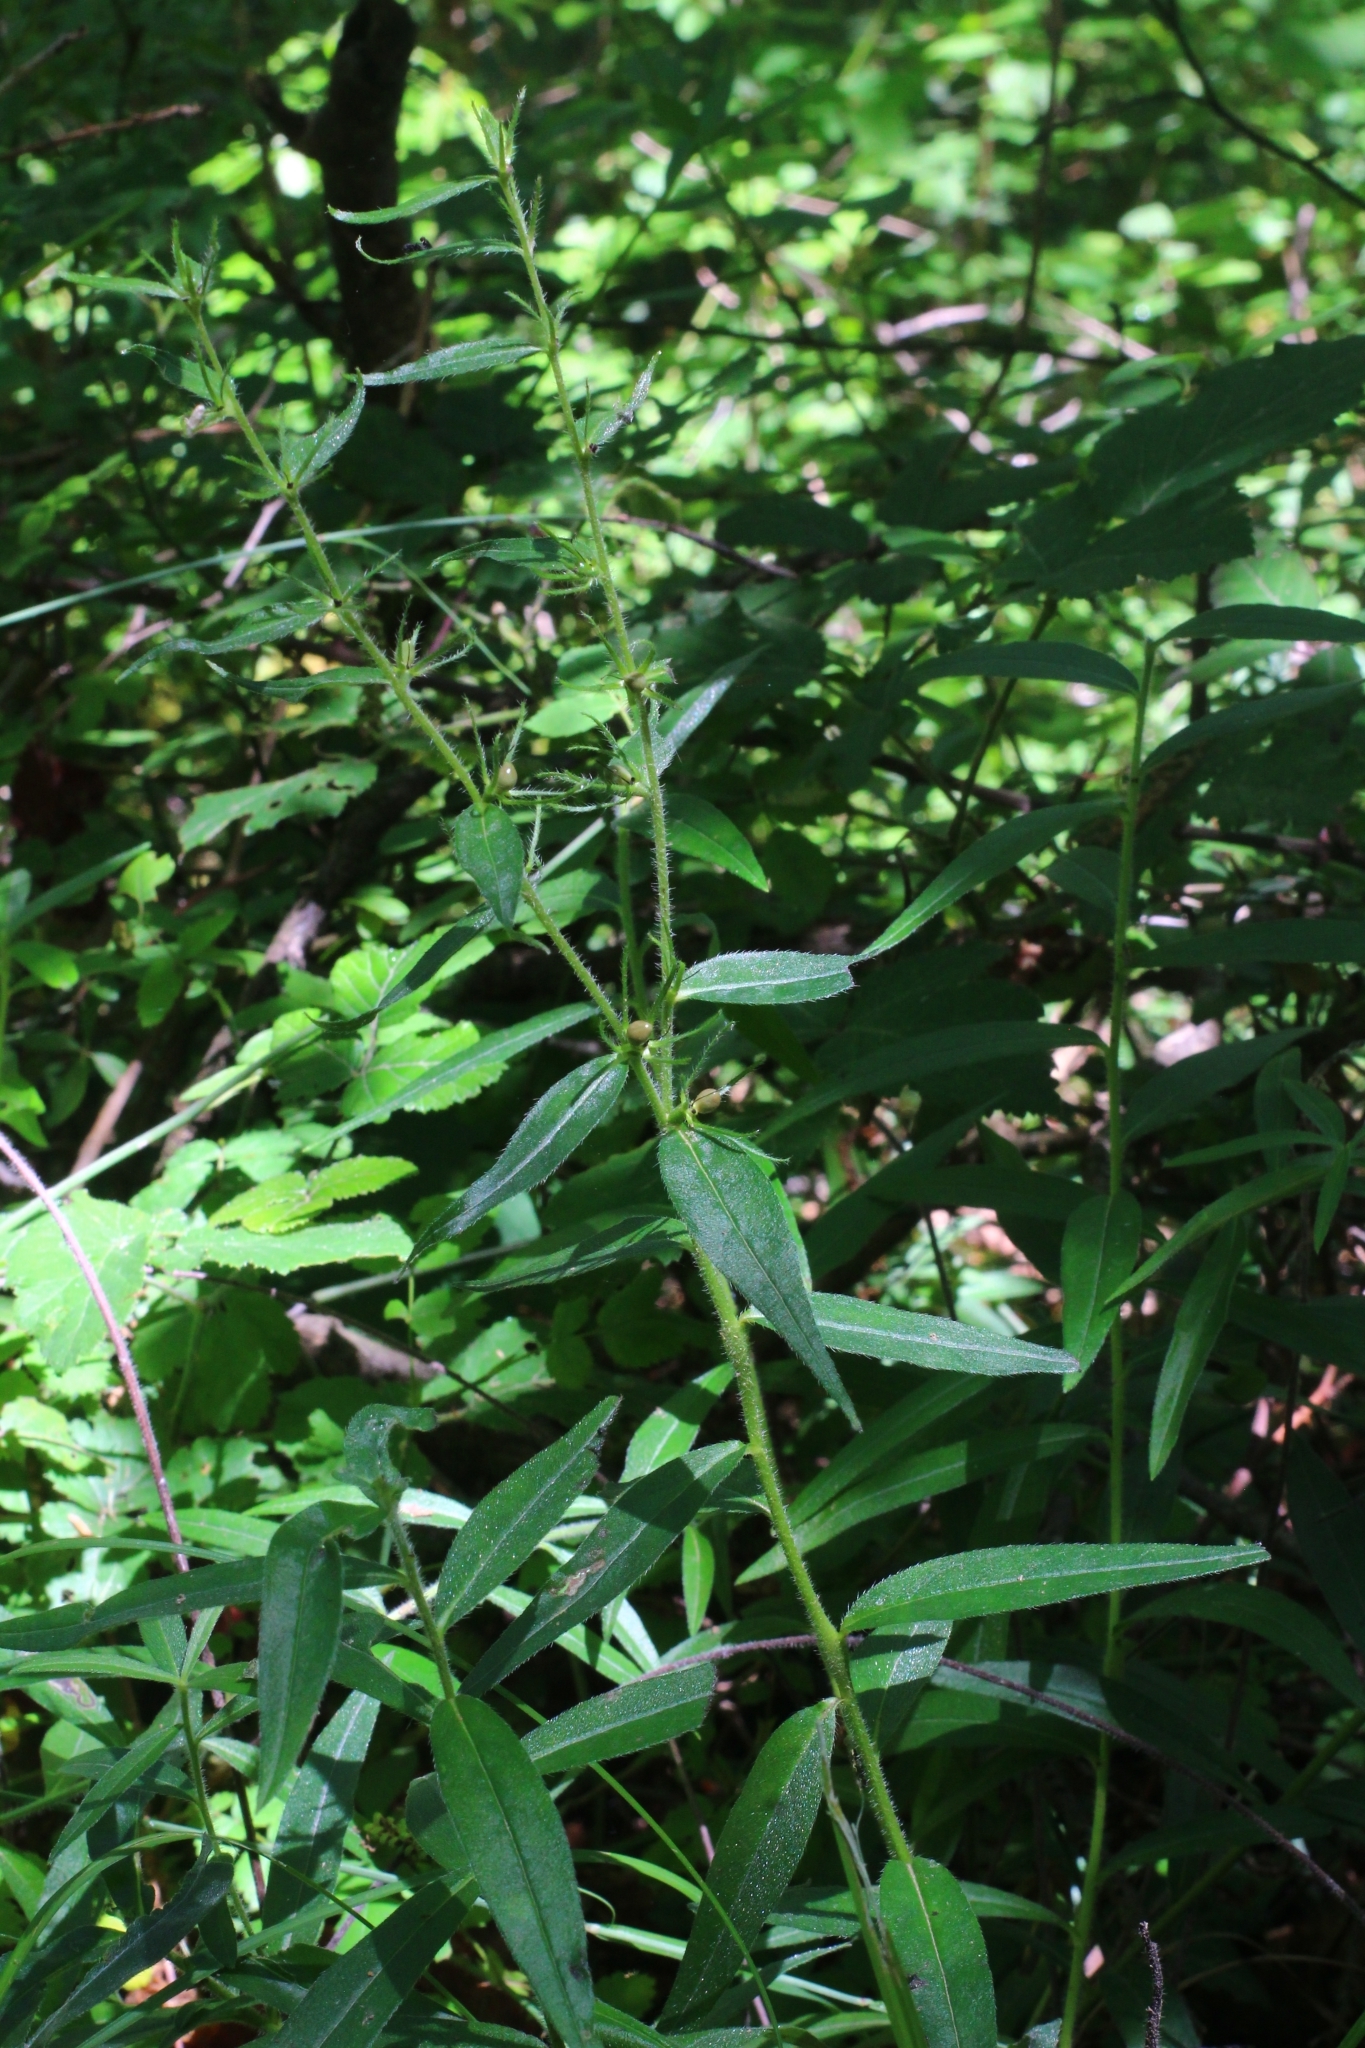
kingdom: Plantae
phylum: Tracheophyta
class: Magnoliopsida
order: Boraginales
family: Boraginaceae
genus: Aegonychon
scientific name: Aegonychon purpurocaeruleum
